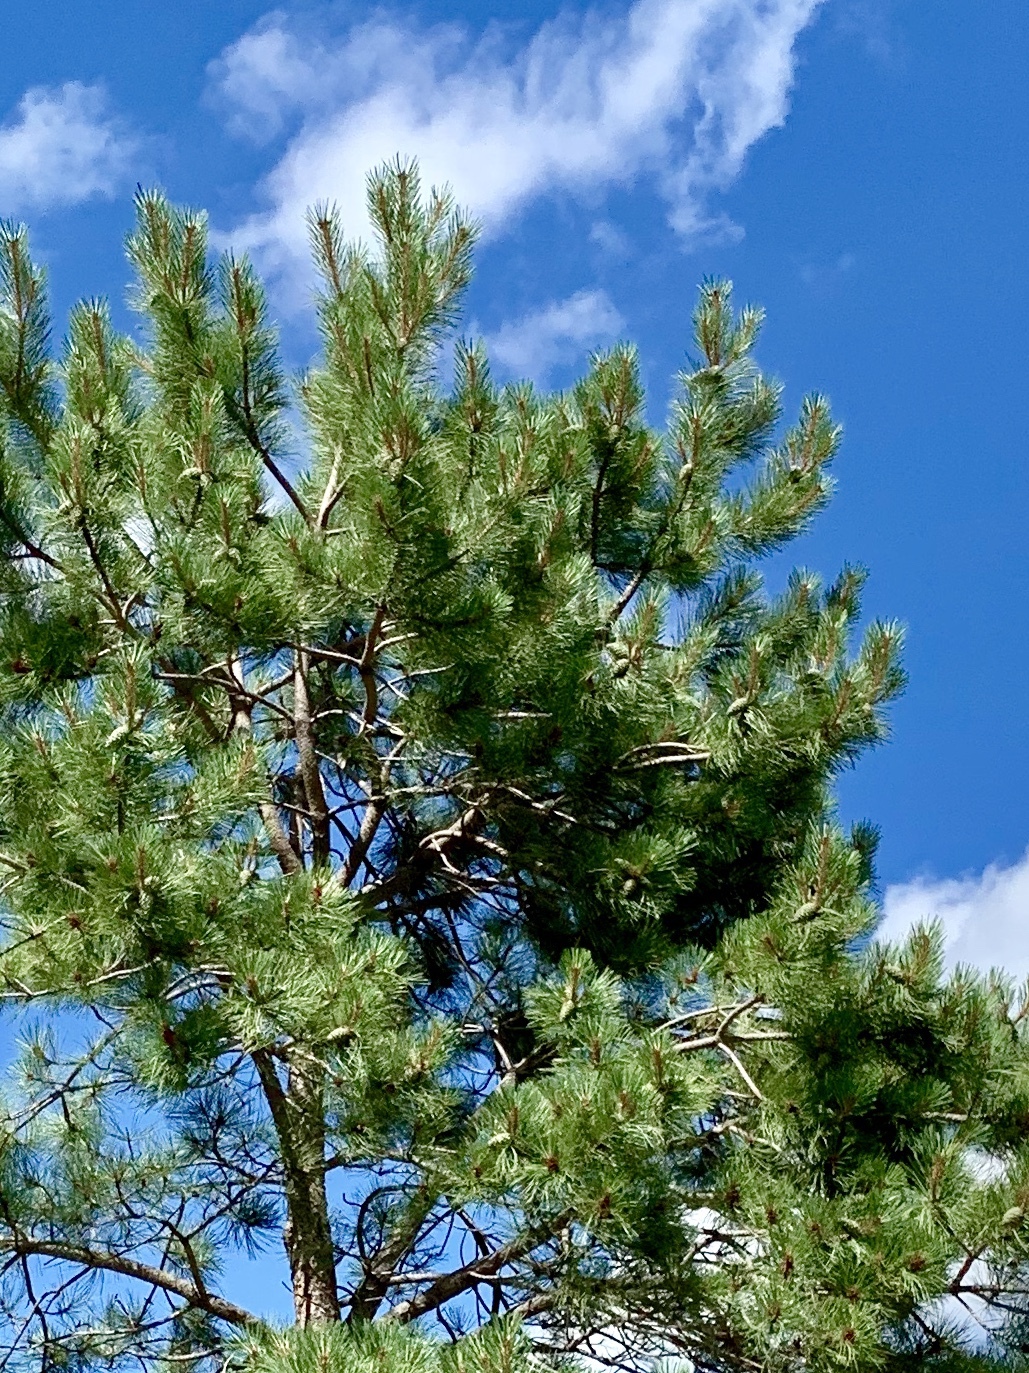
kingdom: Plantae
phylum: Tracheophyta
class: Pinopsida
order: Pinales
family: Pinaceae
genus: Pinus
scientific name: Pinus ponderosa
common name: Western yellow-pine
